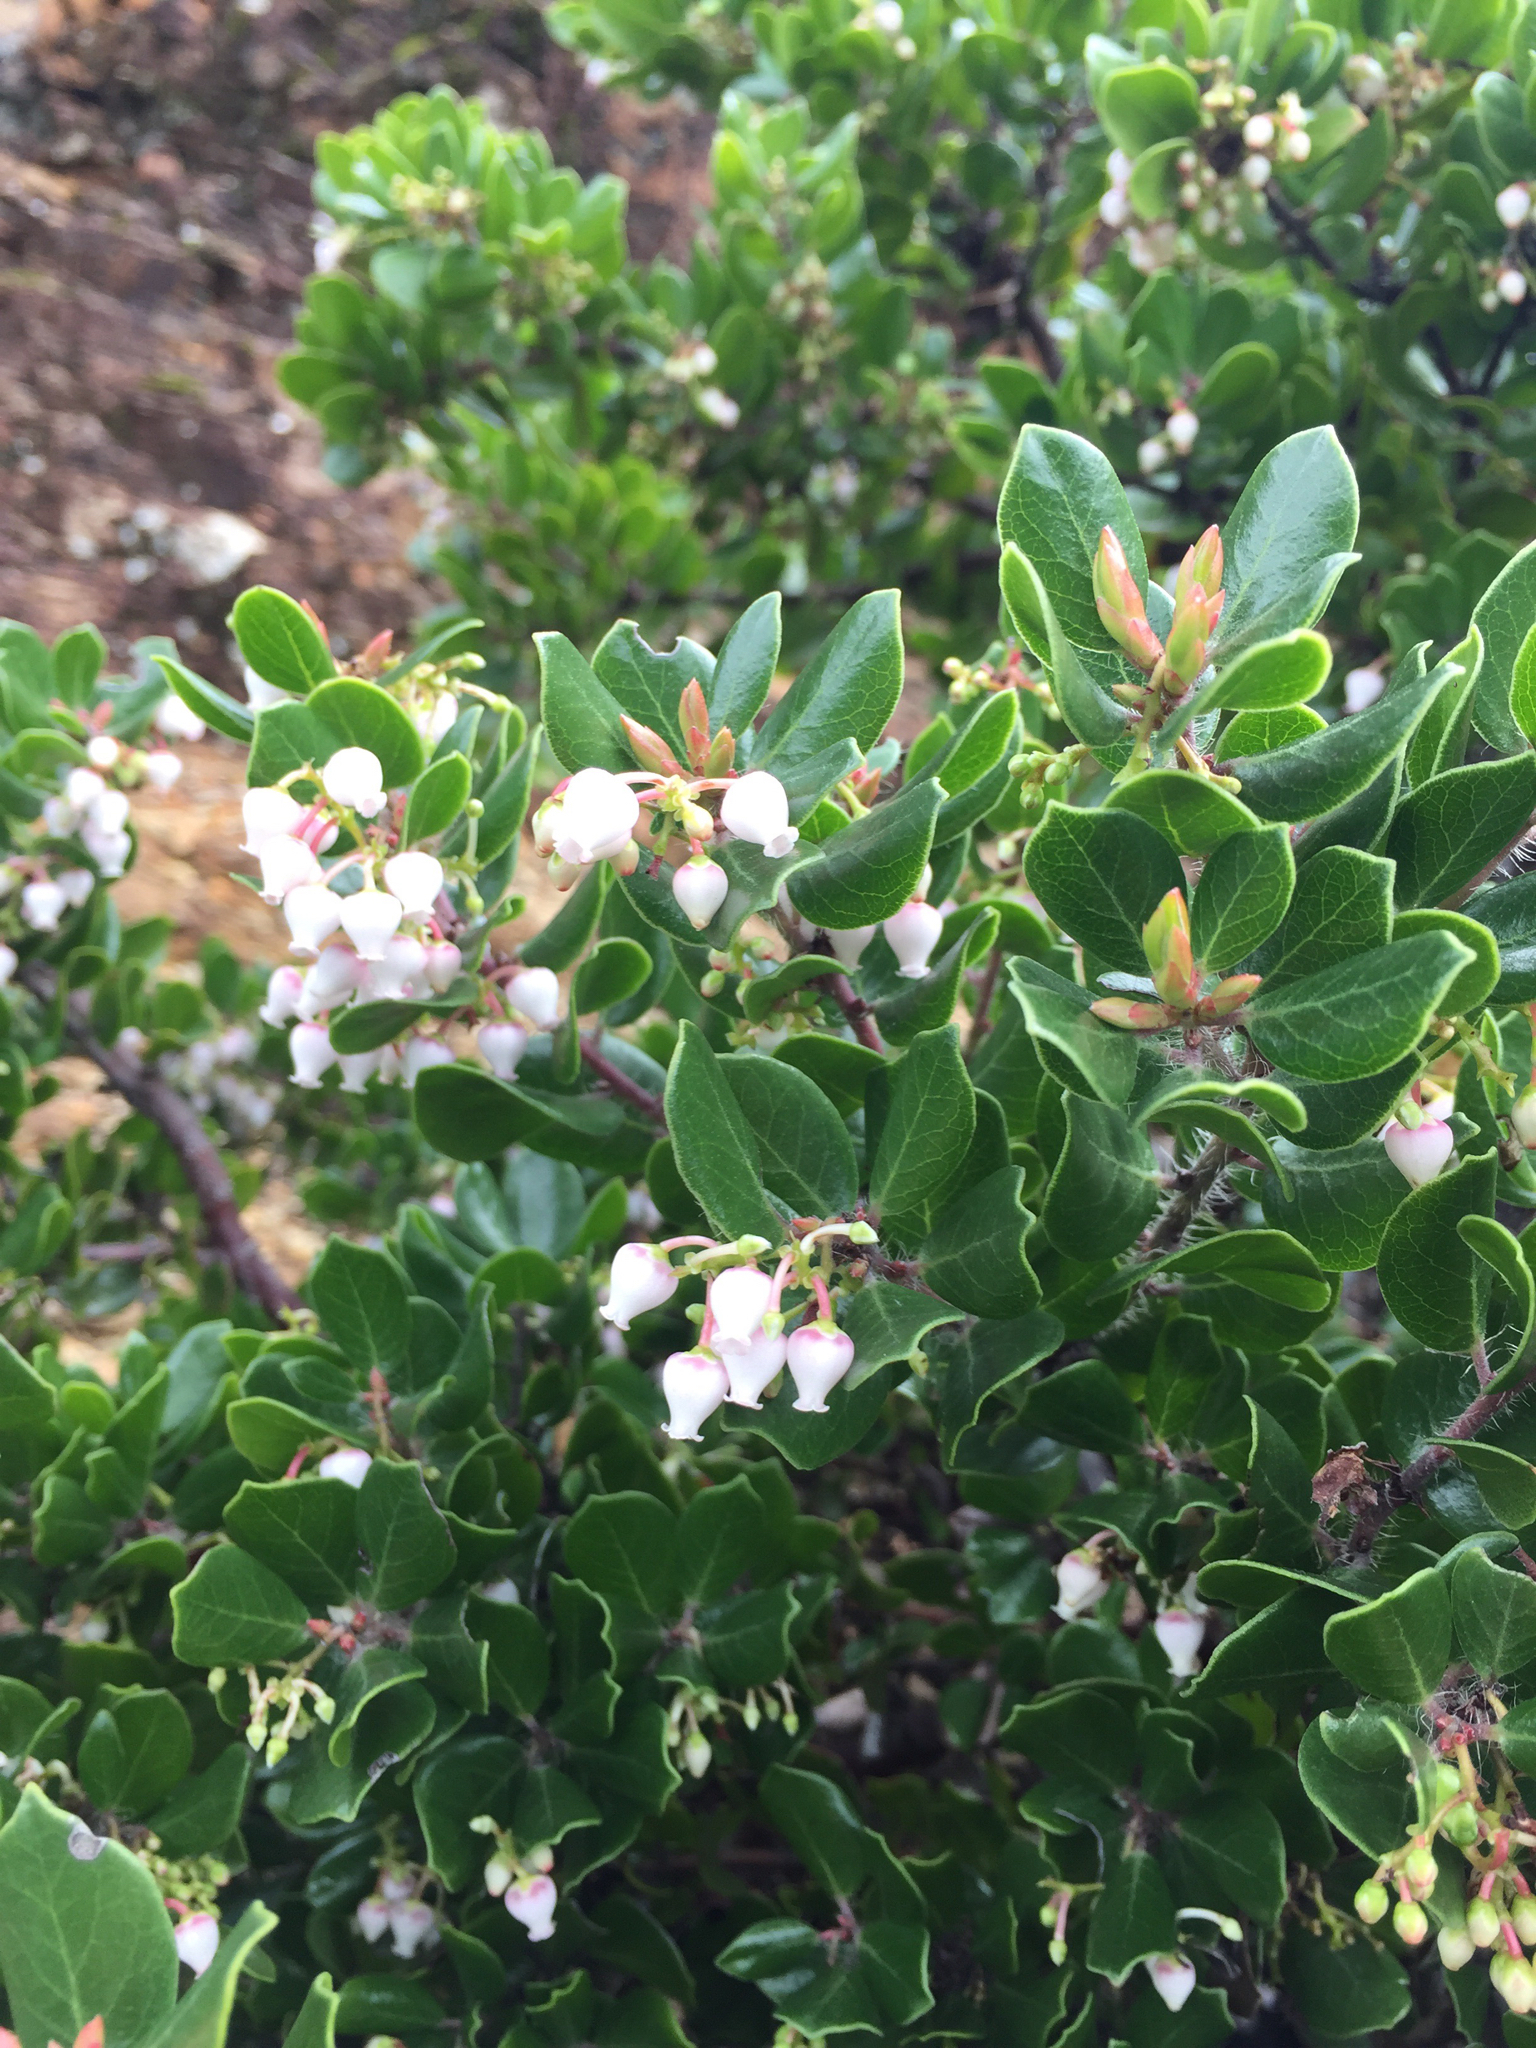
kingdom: Plantae
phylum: Tracheophyta
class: Magnoliopsida
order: Ericales
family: Ericaceae
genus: Arctostaphylos
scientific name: Arctostaphylos nummularia
